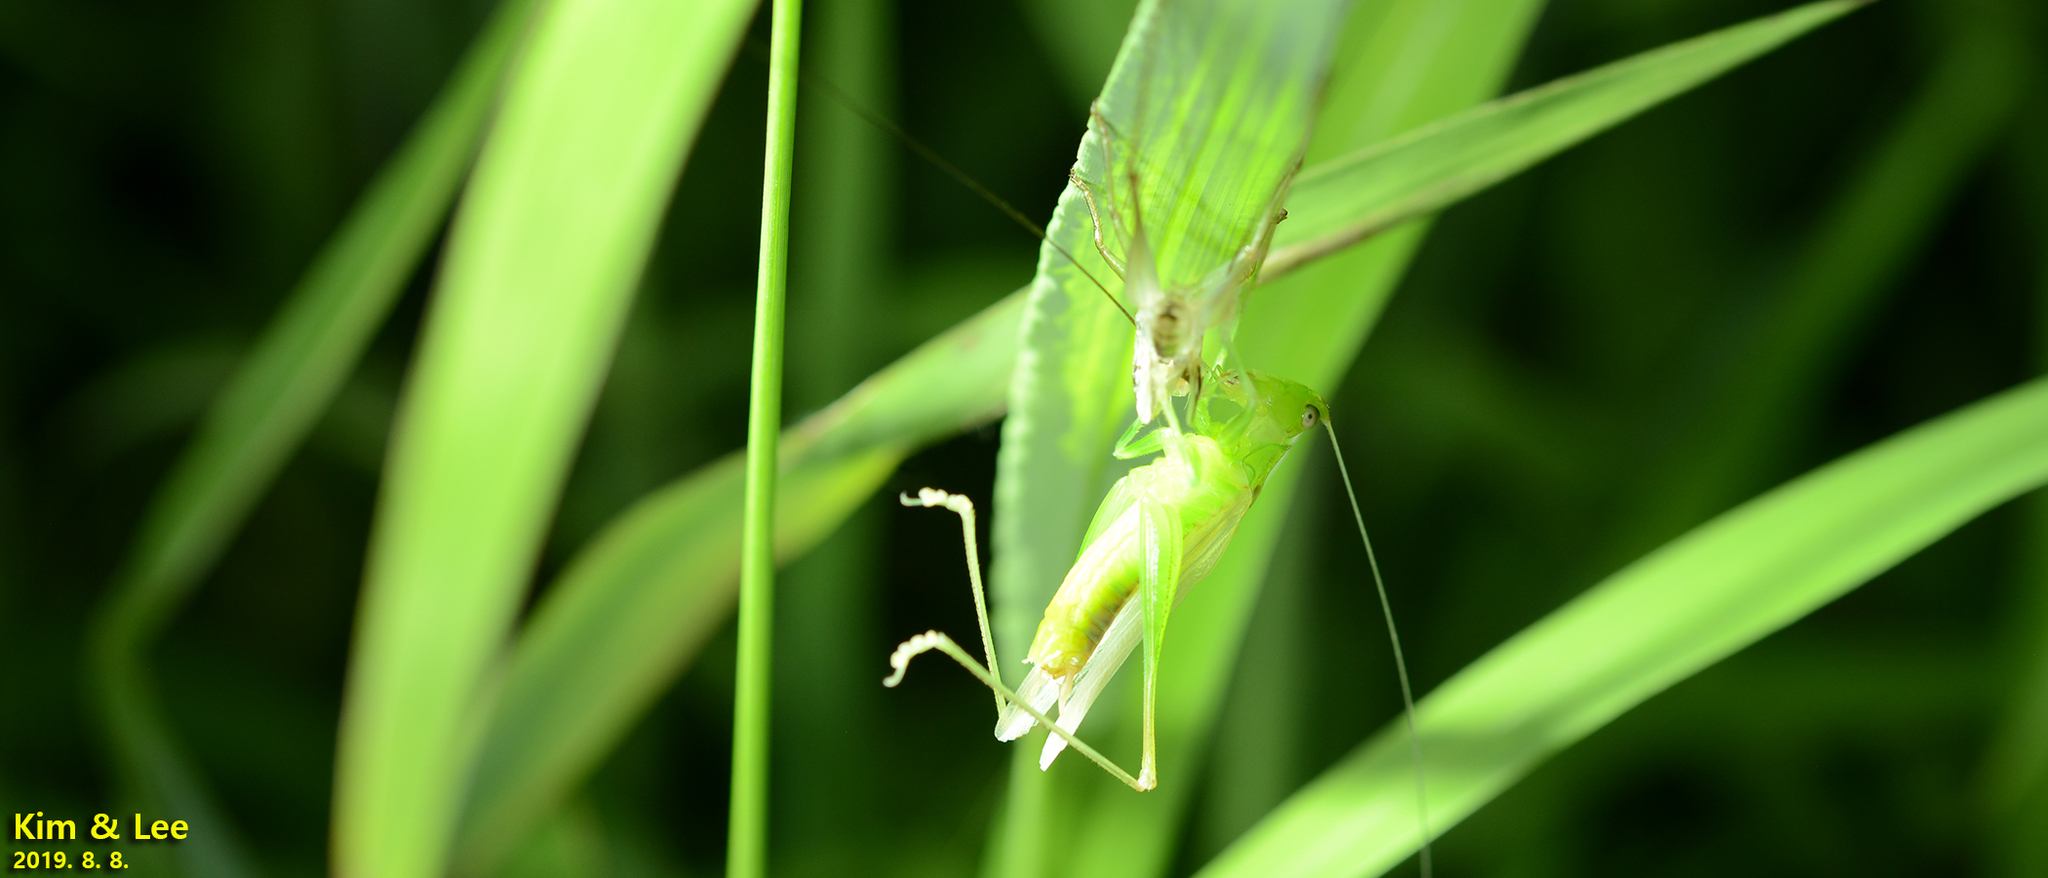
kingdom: Animalia
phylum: Arthropoda
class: Insecta
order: Orthoptera
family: Tettigoniidae
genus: Conocephalus
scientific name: Conocephalus exemptus
